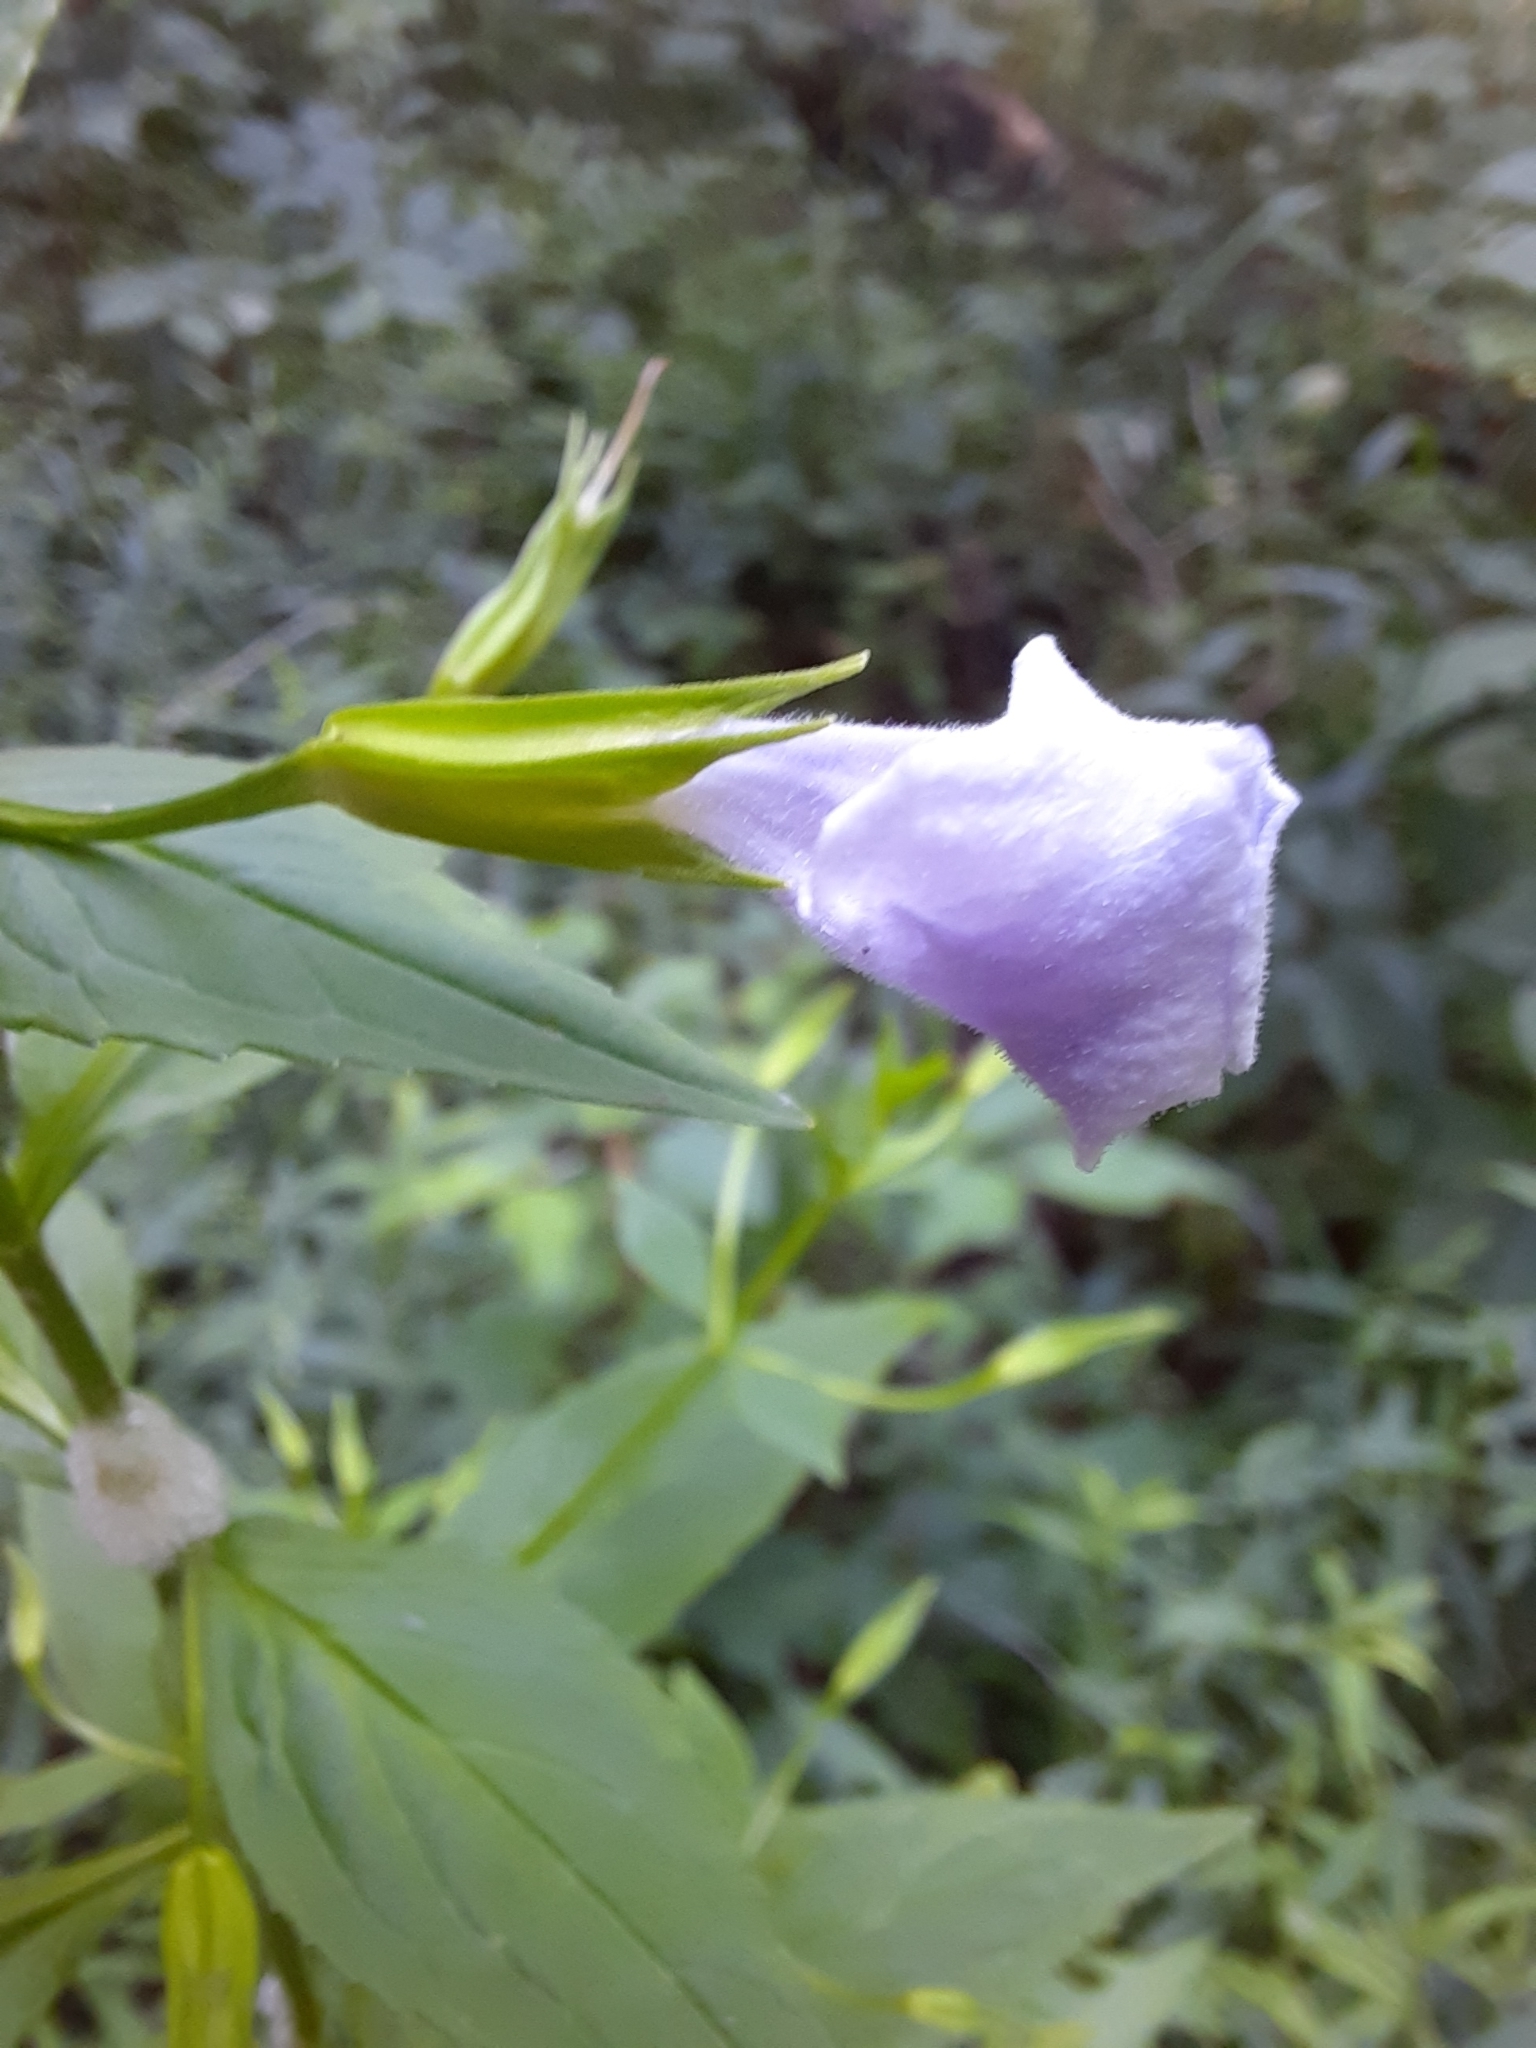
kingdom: Plantae
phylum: Tracheophyta
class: Magnoliopsida
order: Lamiales
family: Phrymaceae
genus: Mimulus
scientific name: Mimulus ringens
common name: Allegheny monkeyflower
